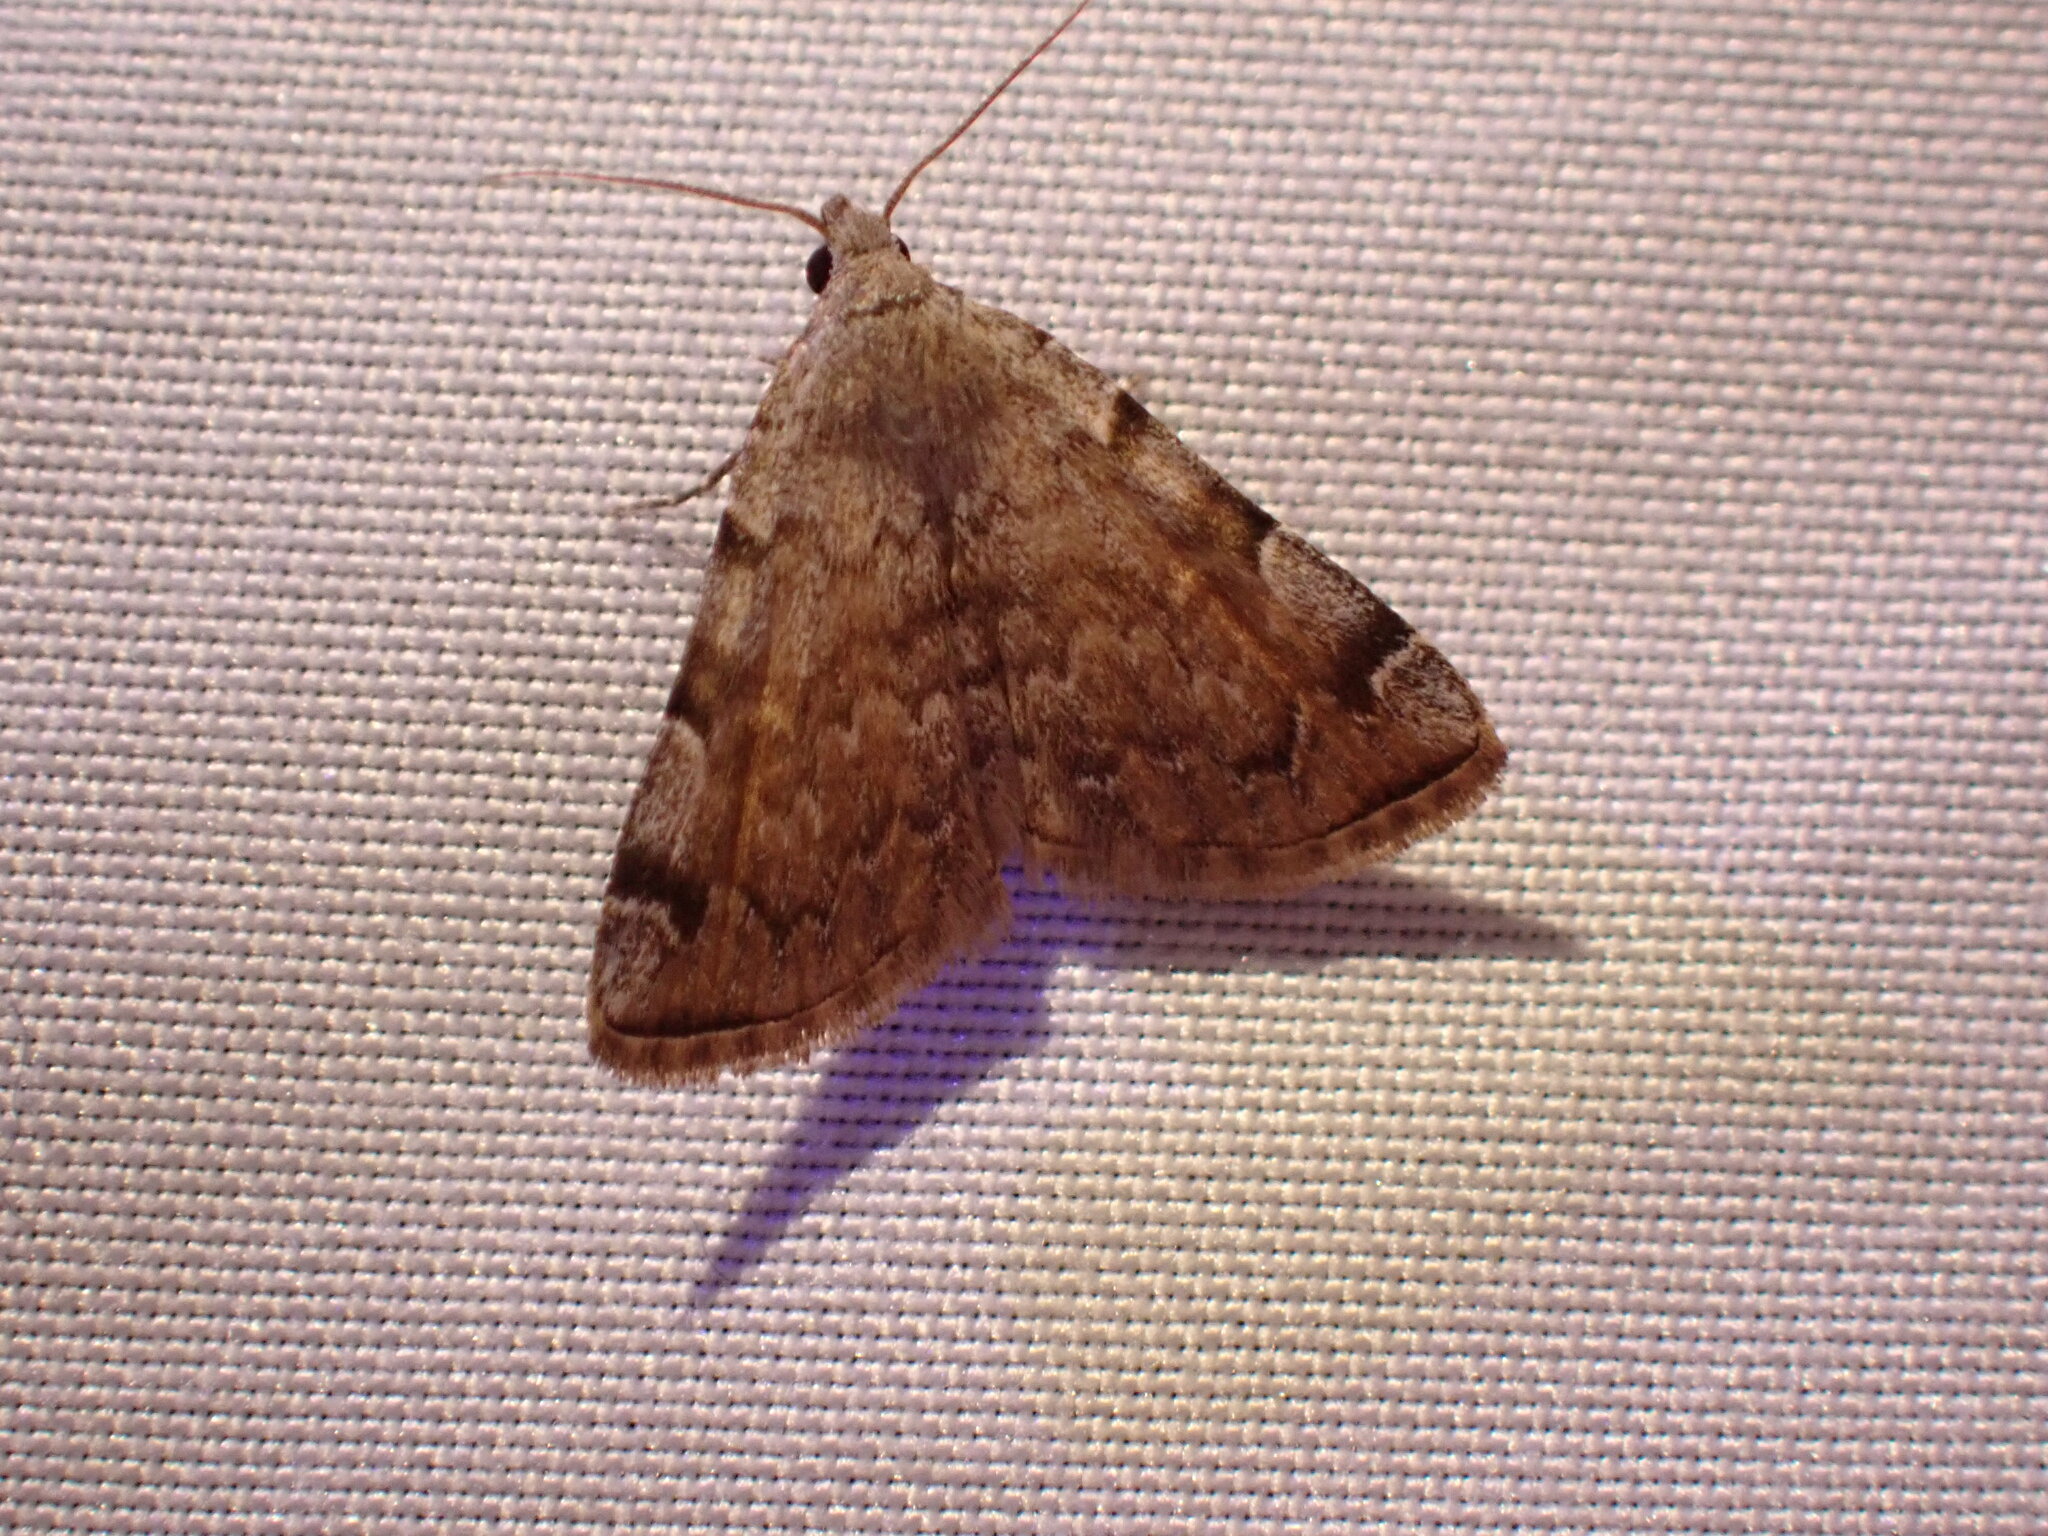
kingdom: Animalia
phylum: Arthropoda
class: Insecta
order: Lepidoptera
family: Erebidae
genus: Idia
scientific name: Idia americalis
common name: American idia moth
